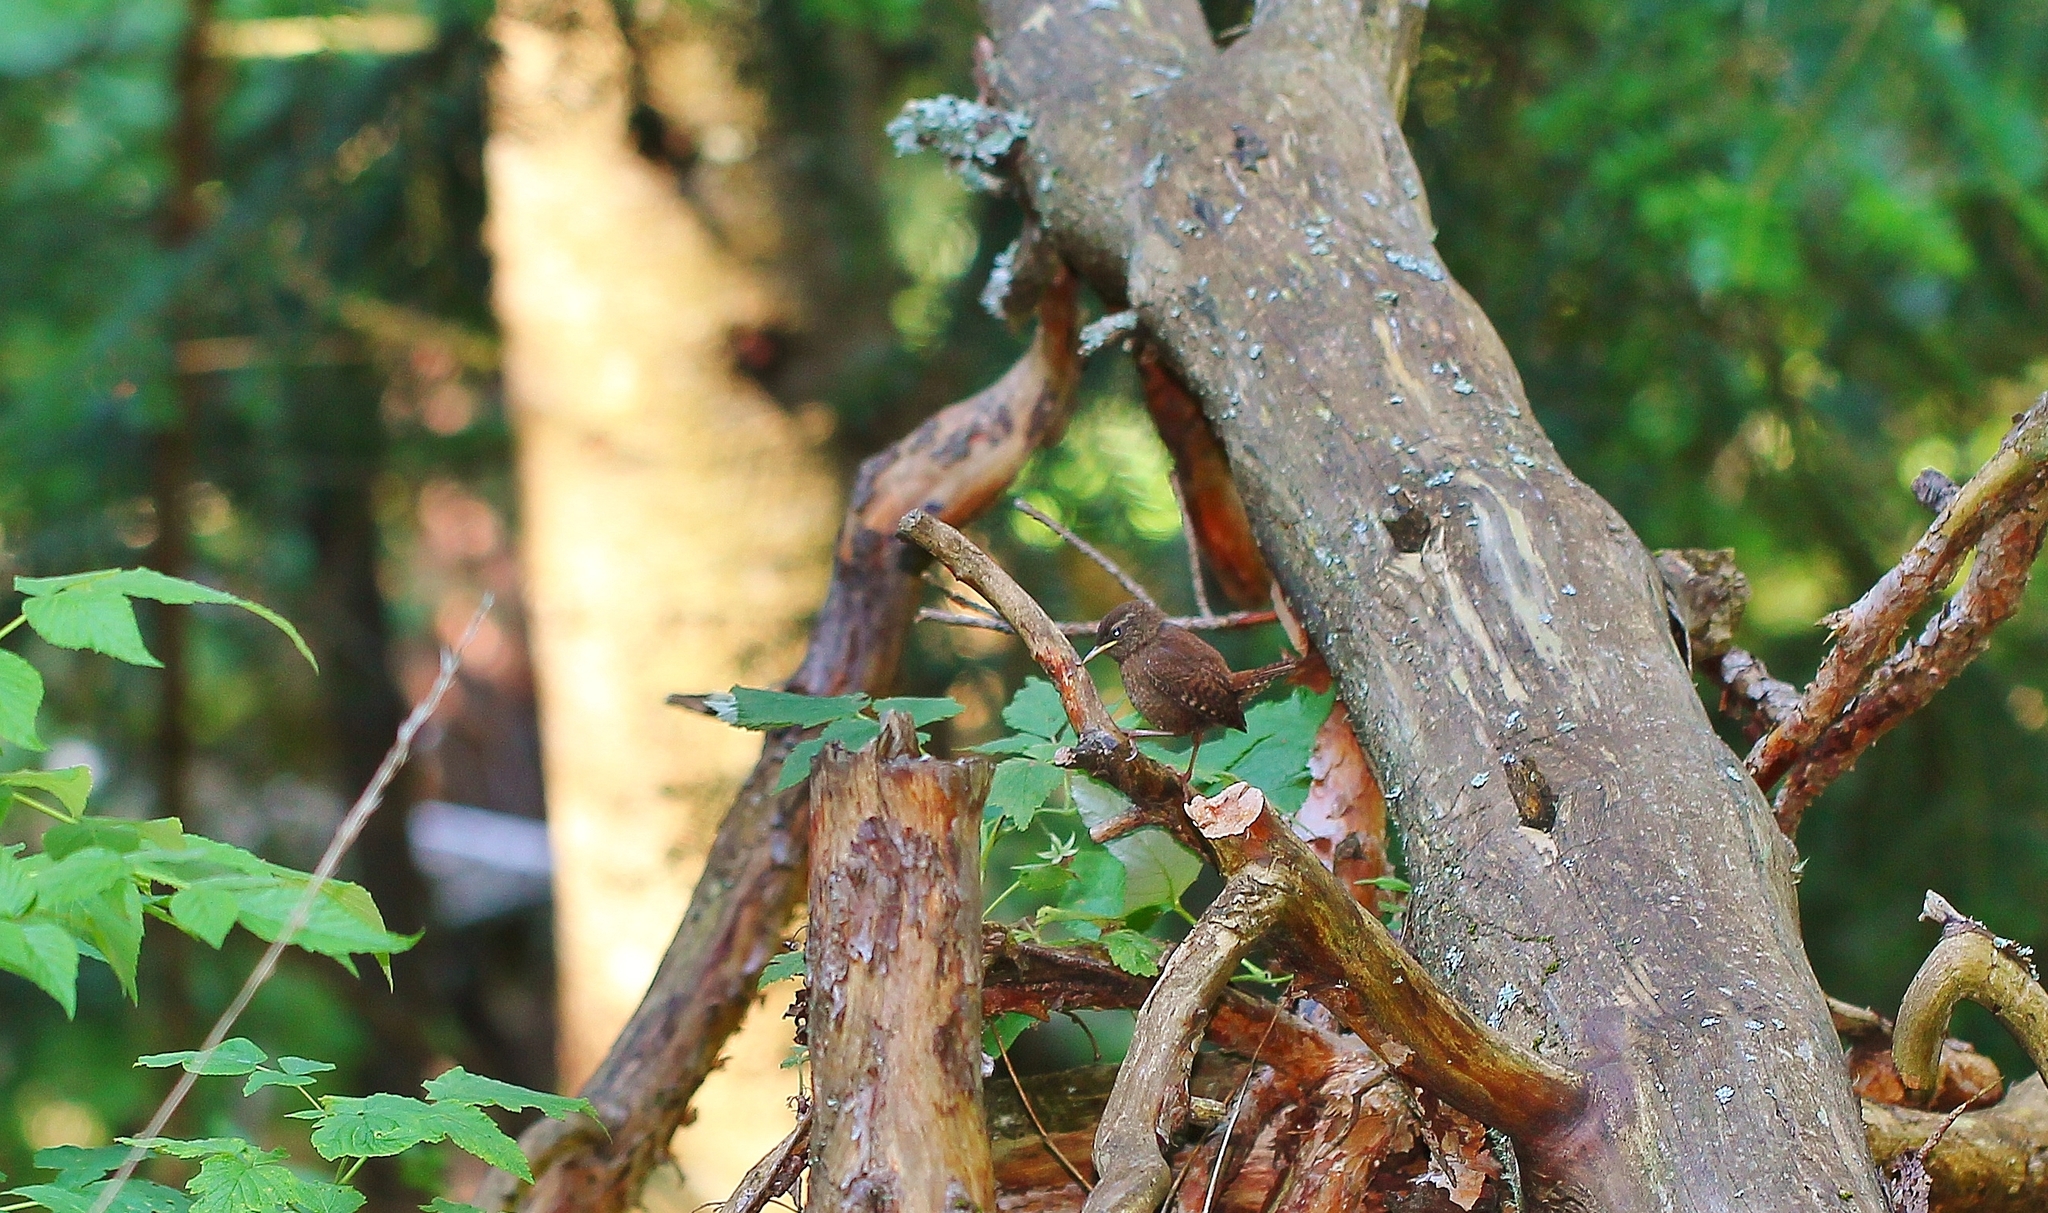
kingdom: Animalia
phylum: Chordata
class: Aves
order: Passeriformes
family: Troglodytidae
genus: Troglodytes
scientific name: Troglodytes troglodytes
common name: Eurasian wren
